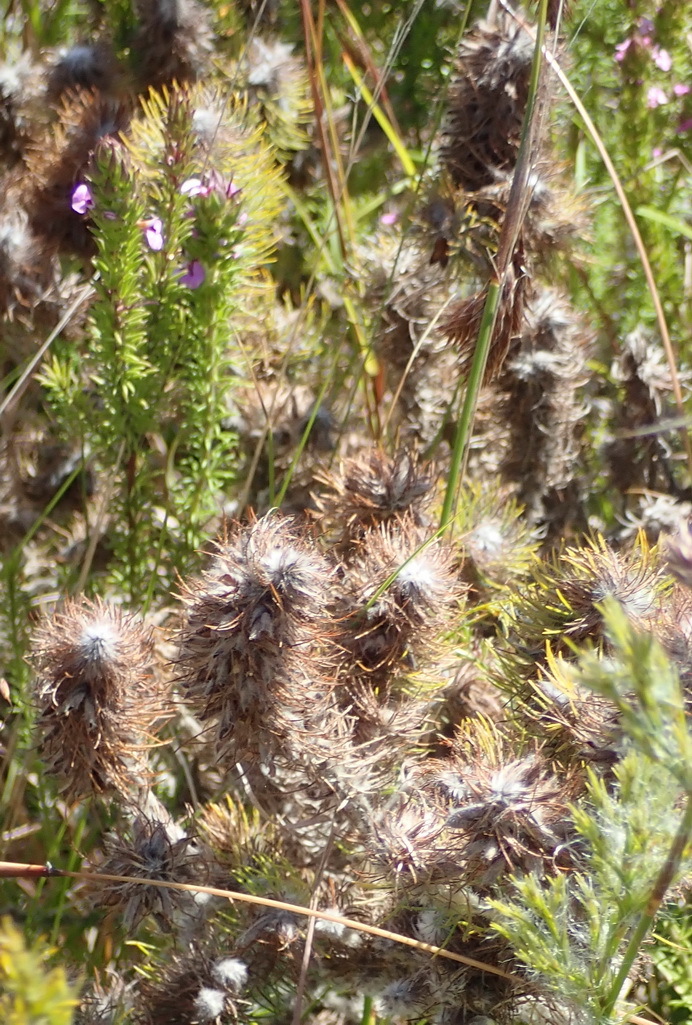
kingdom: Plantae
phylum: Tracheophyta
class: Magnoliopsida
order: Fabales
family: Fabaceae
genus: Aspalathus
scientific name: Aspalathus alopecurus
